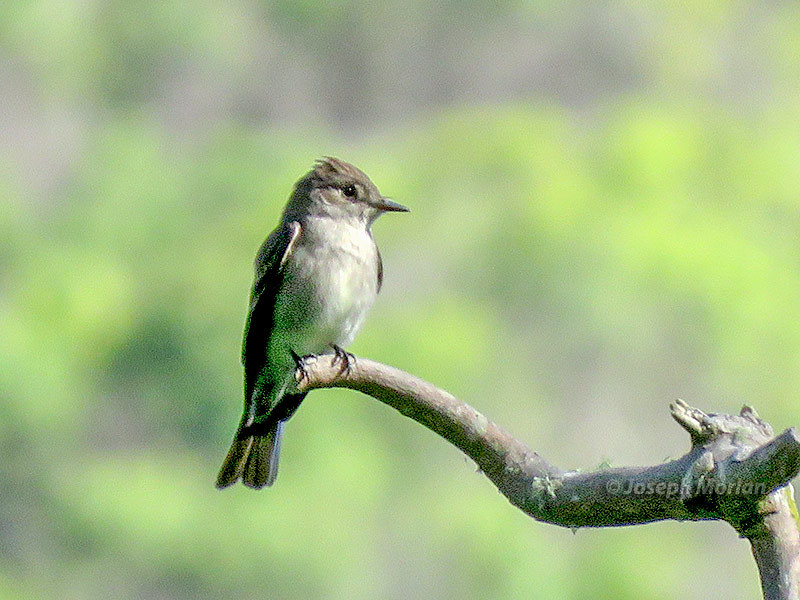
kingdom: Animalia
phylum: Chordata
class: Aves
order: Passeriformes
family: Tyrannidae
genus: Contopus
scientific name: Contopus sordidulus
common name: Western wood-pewee
